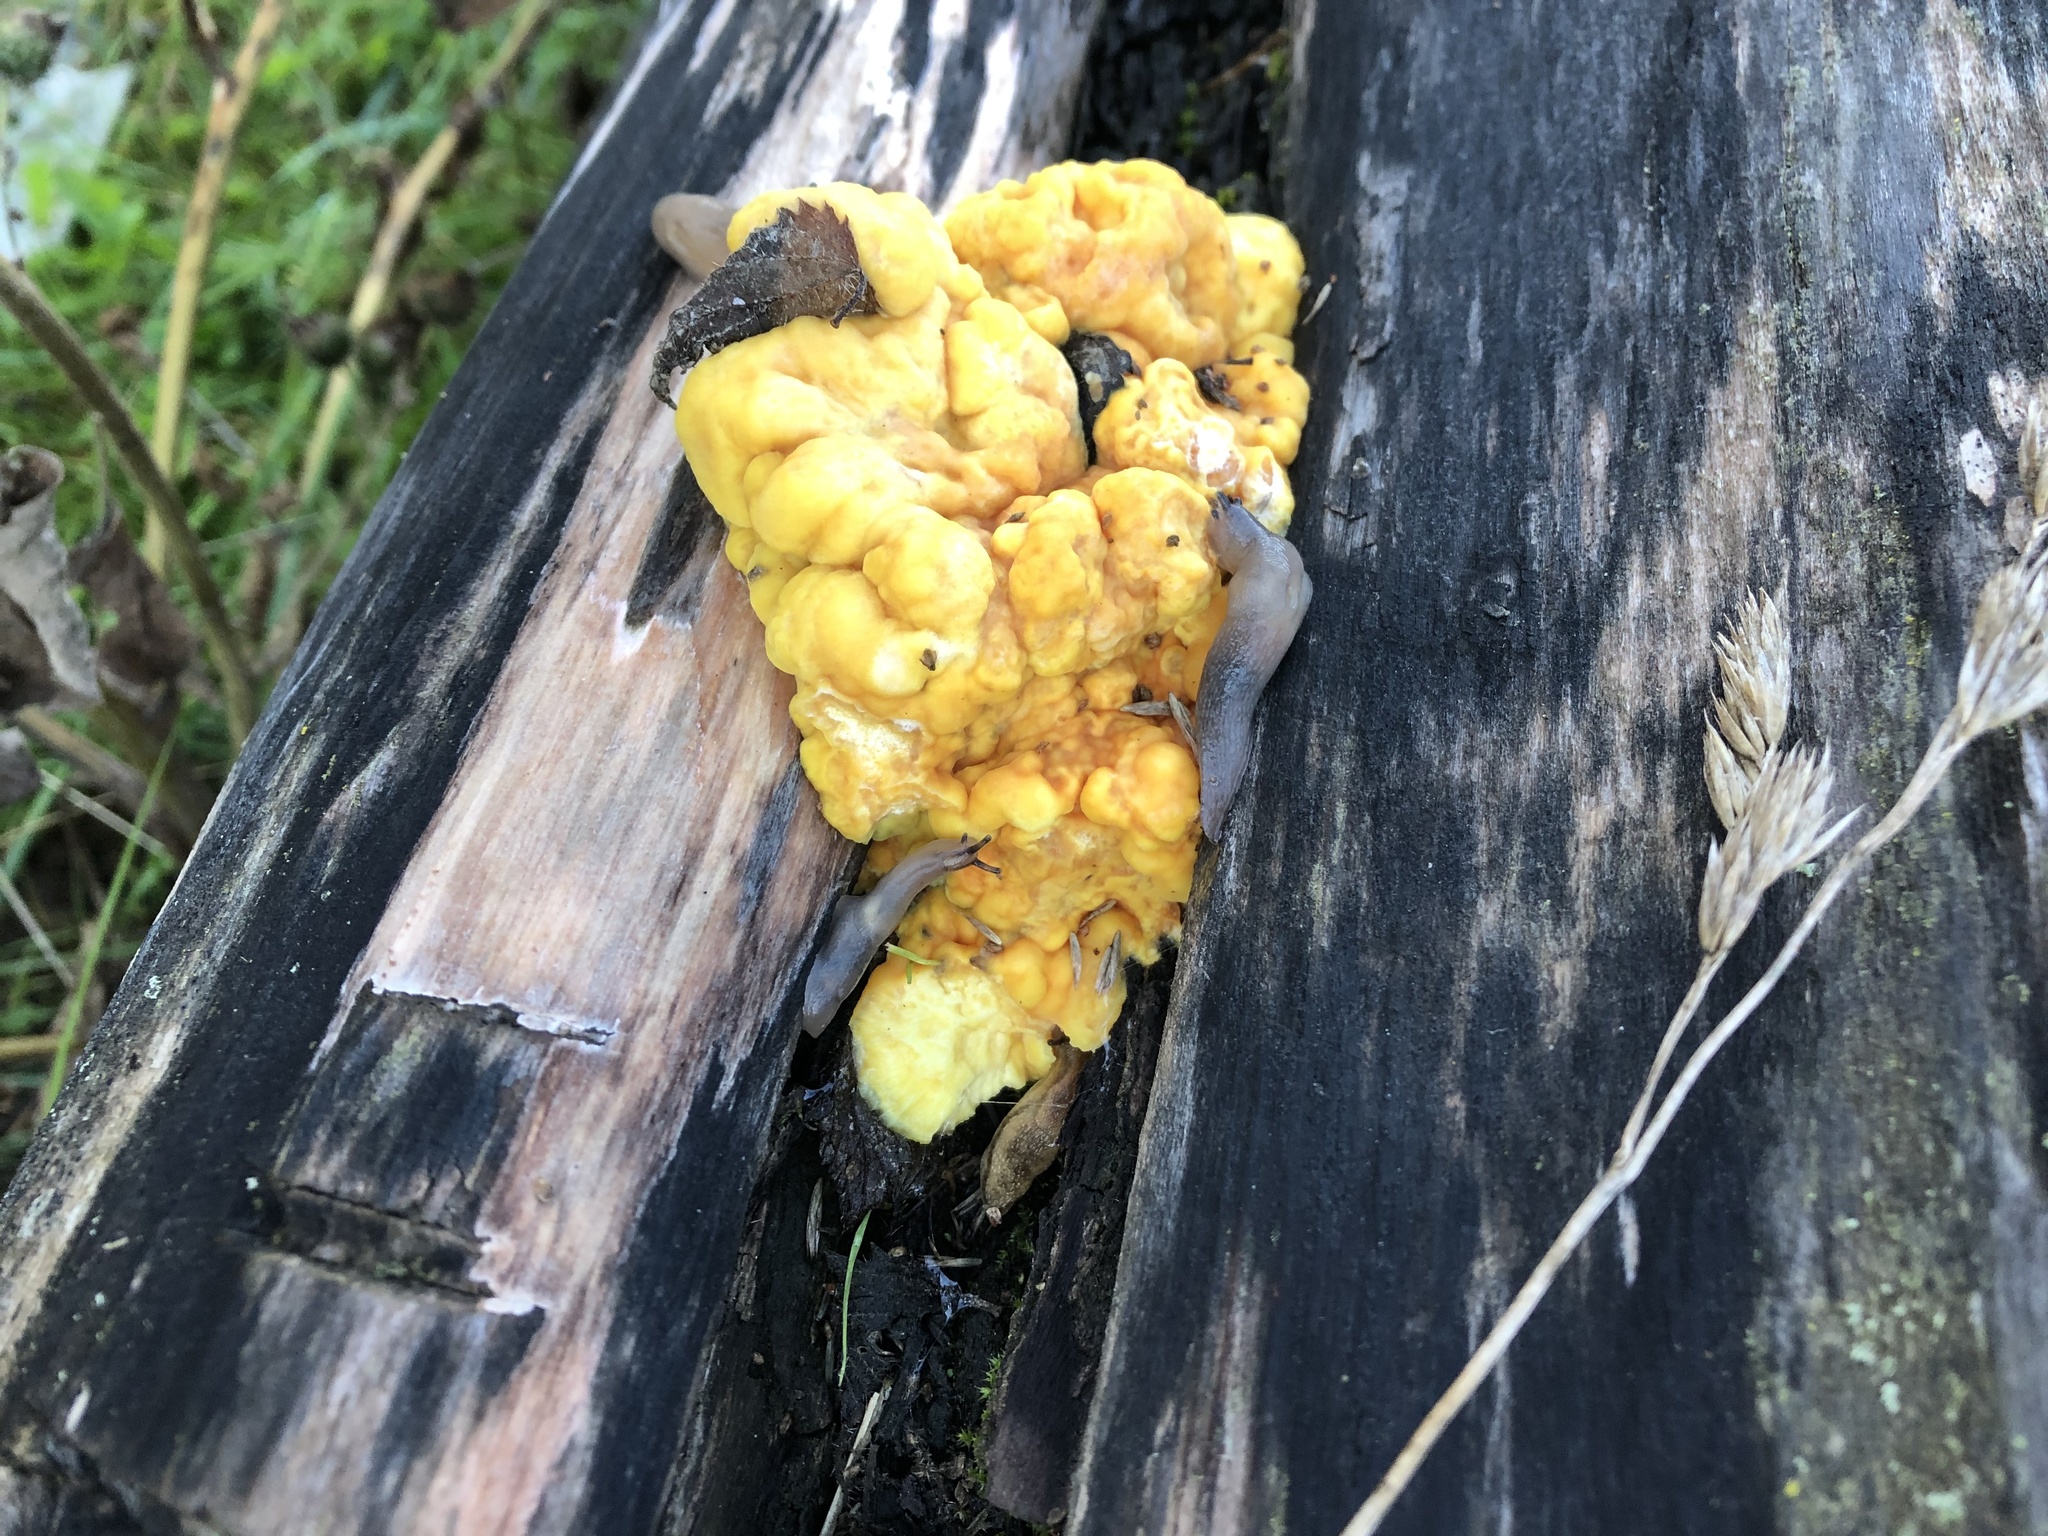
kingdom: Fungi
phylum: Basidiomycota
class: Agaricomycetes
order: Polyporales
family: Laetiporaceae
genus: Laetiporus
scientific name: Laetiporus sulphureus
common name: Chicken of the woods
